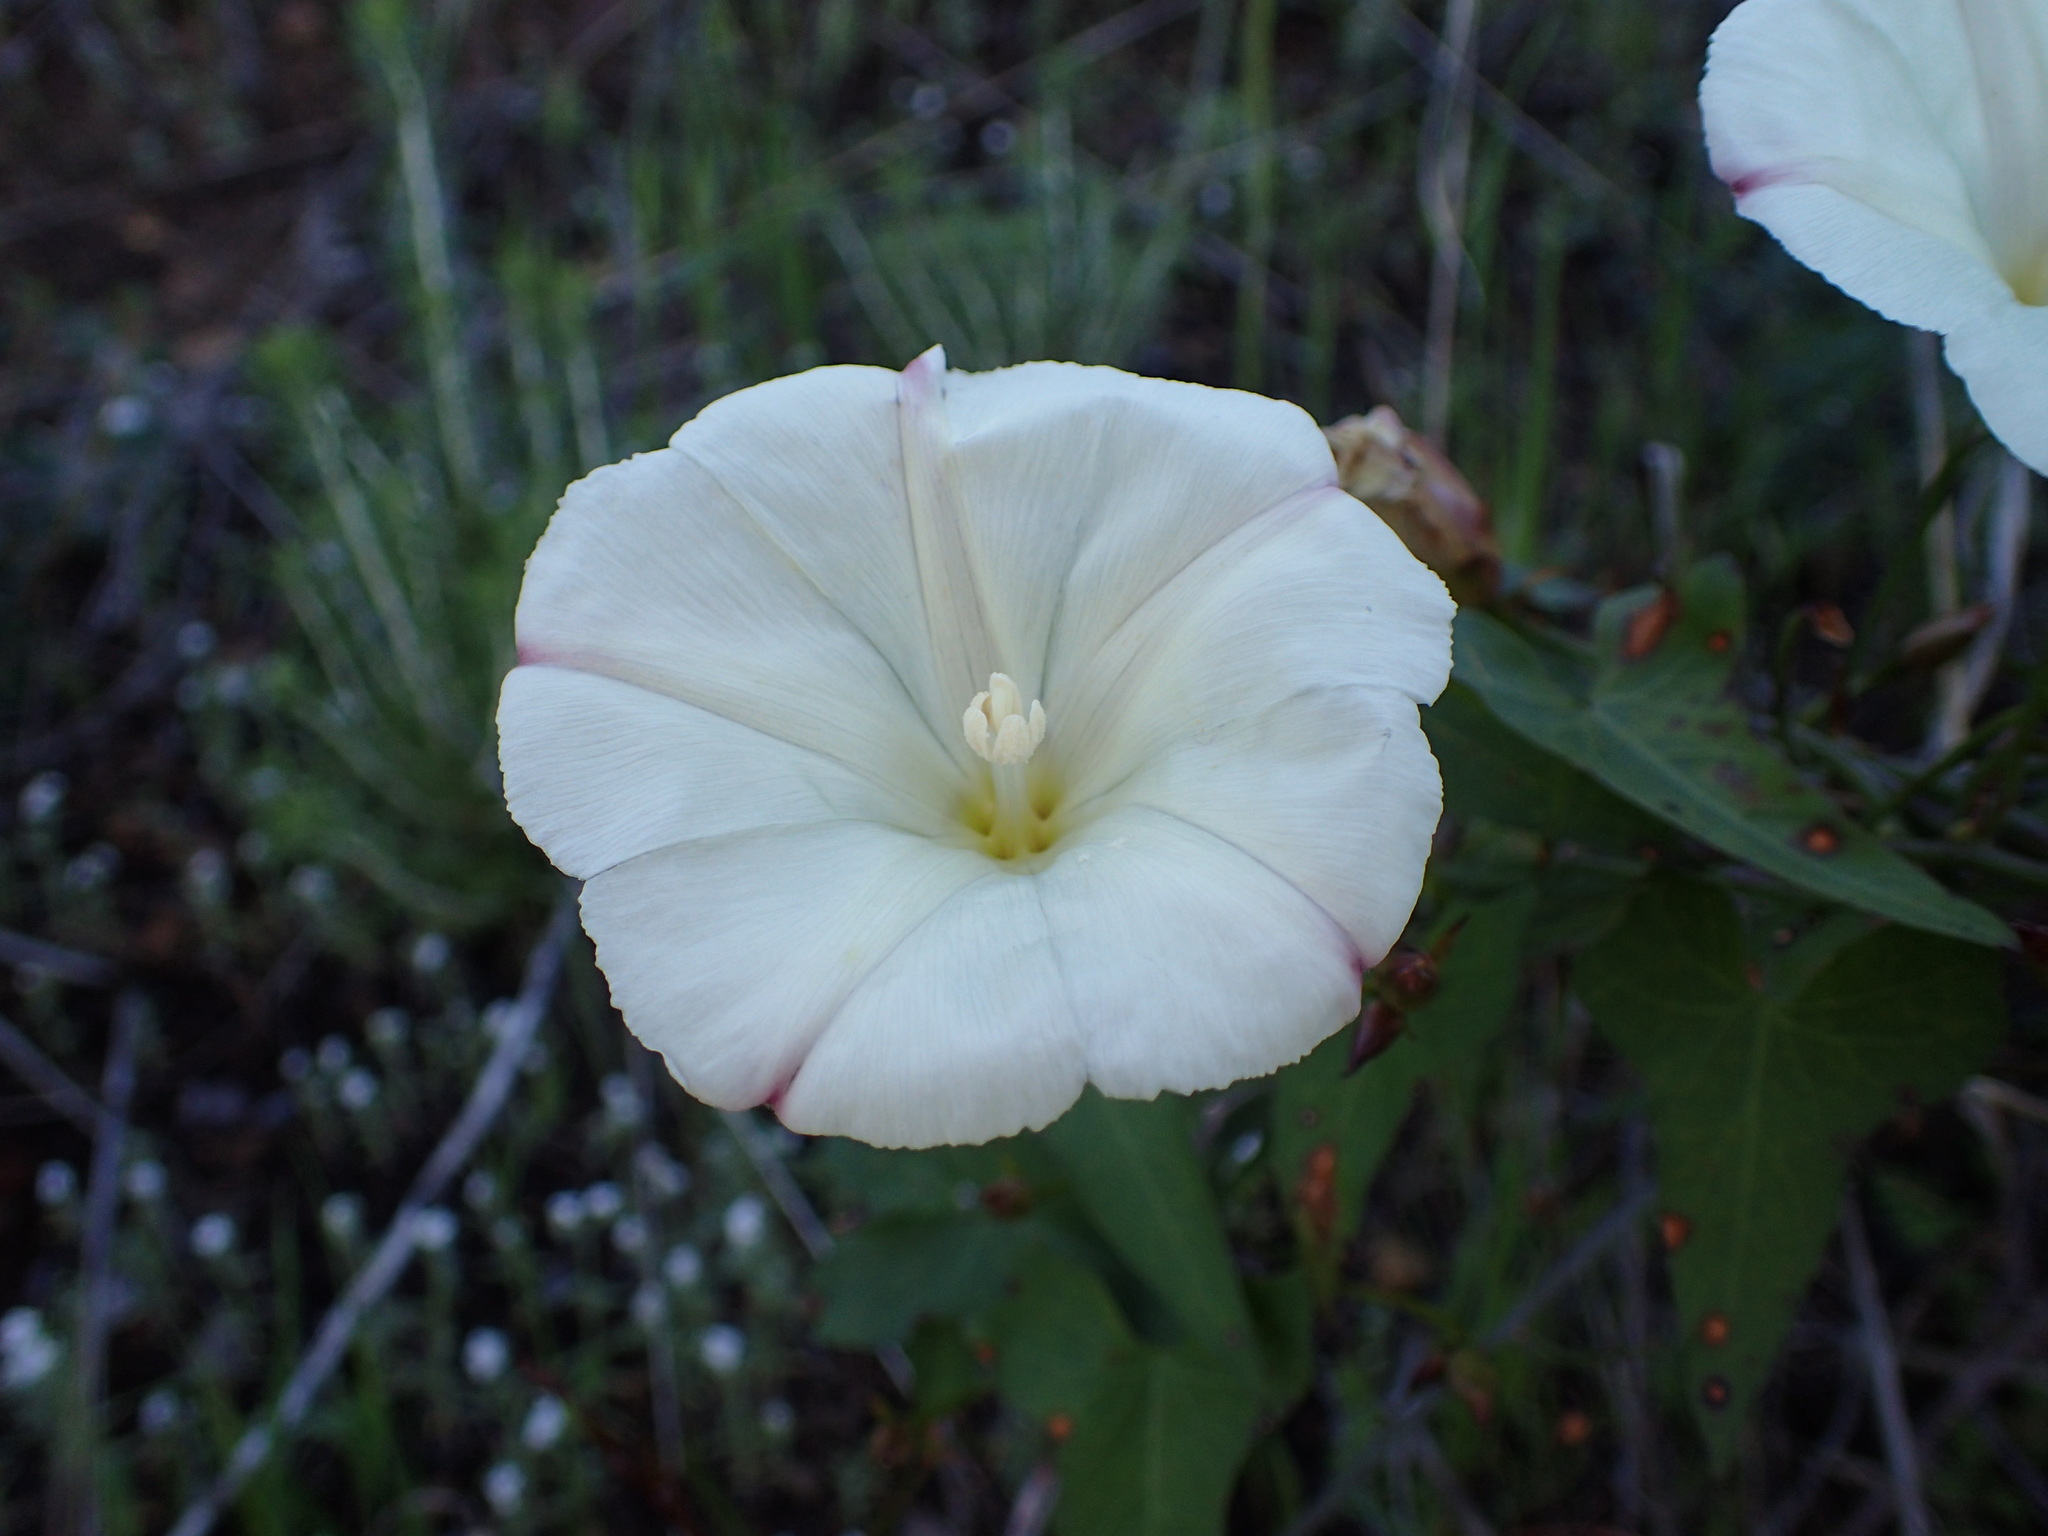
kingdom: Plantae
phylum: Tracheophyta
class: Magnoliopsida
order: Solanales
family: Convolvulaceae
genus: Calystegia
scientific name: Calystegia purpurata
